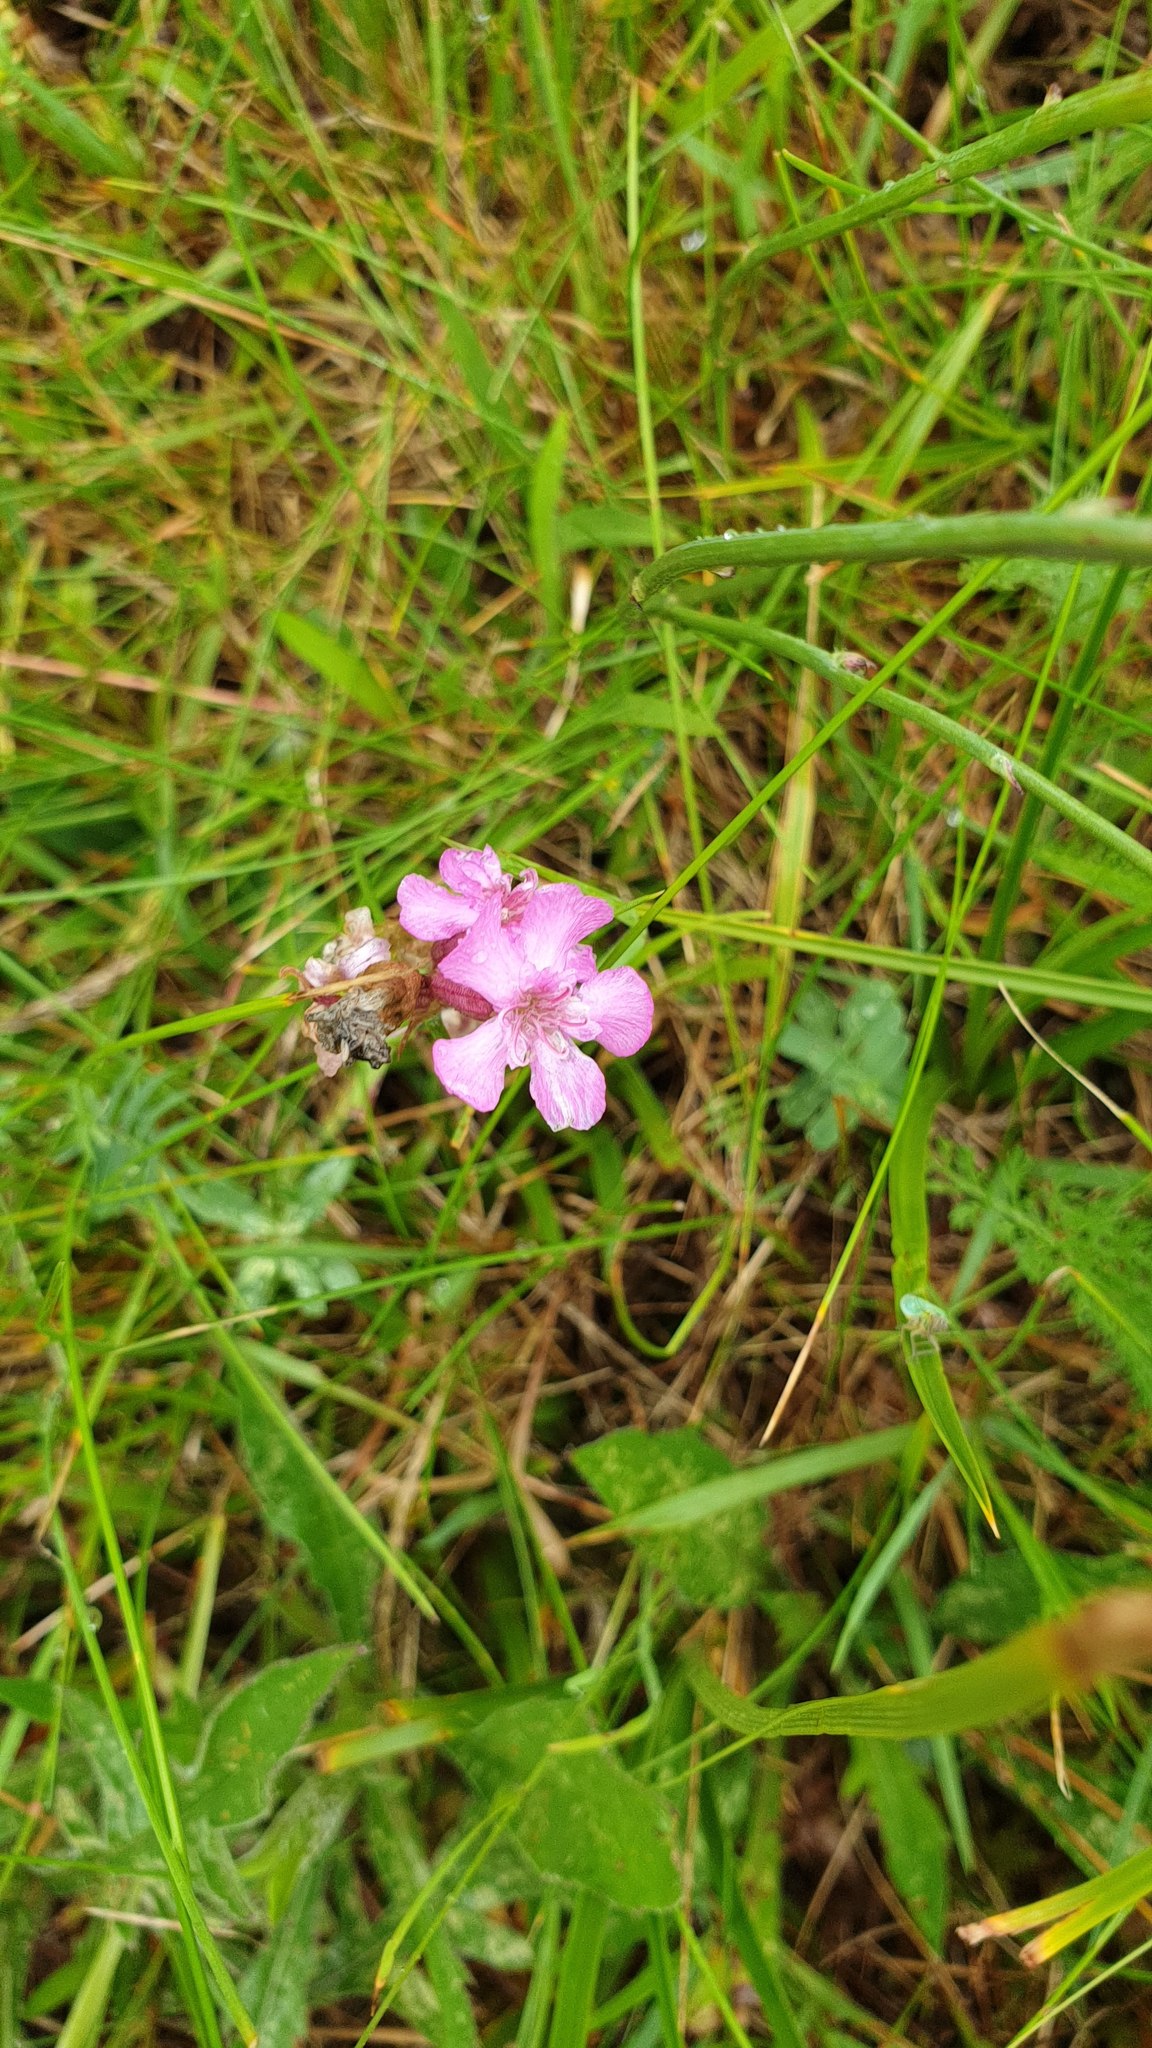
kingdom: Plantae
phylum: Tracheophyta
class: Magnoliopsida
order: Caryophyllales
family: Caryophyllaceae
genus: Viscaria
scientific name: Viscaria vulgaris
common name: Clammy campion
